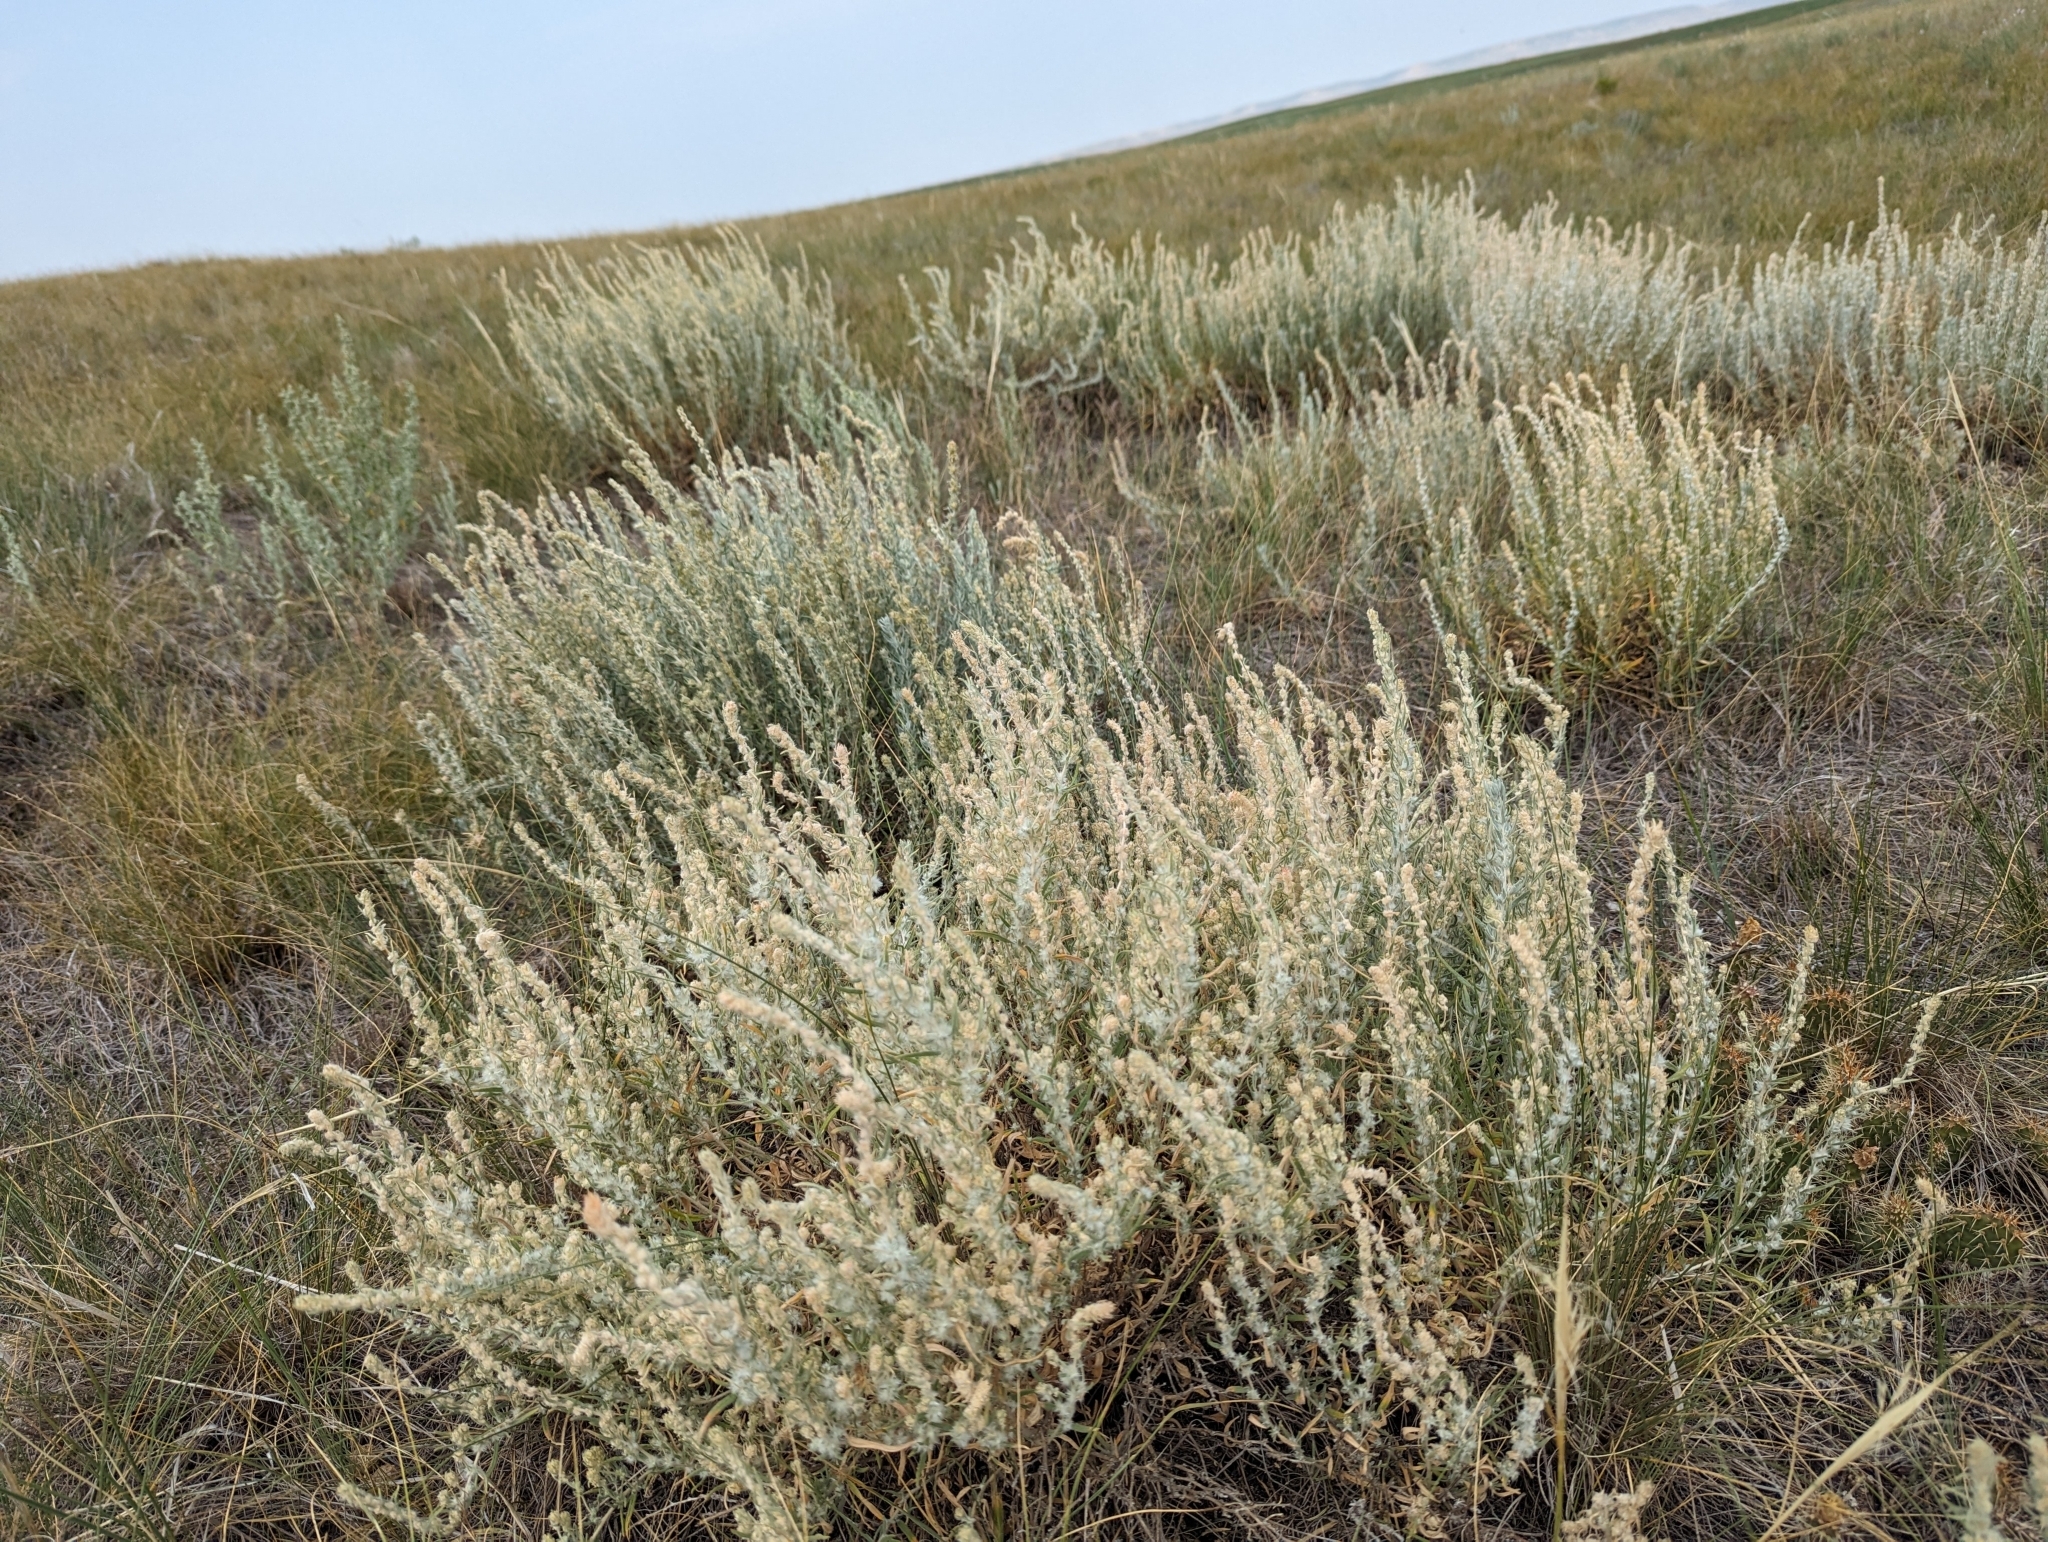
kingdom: Plantae
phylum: Tracheophyta
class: Magnoliopsida
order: Caryophyllales
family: Amaranthaceae
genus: Krascheninnikovia
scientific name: Krascheninnikovia lanata
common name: Winterfat
